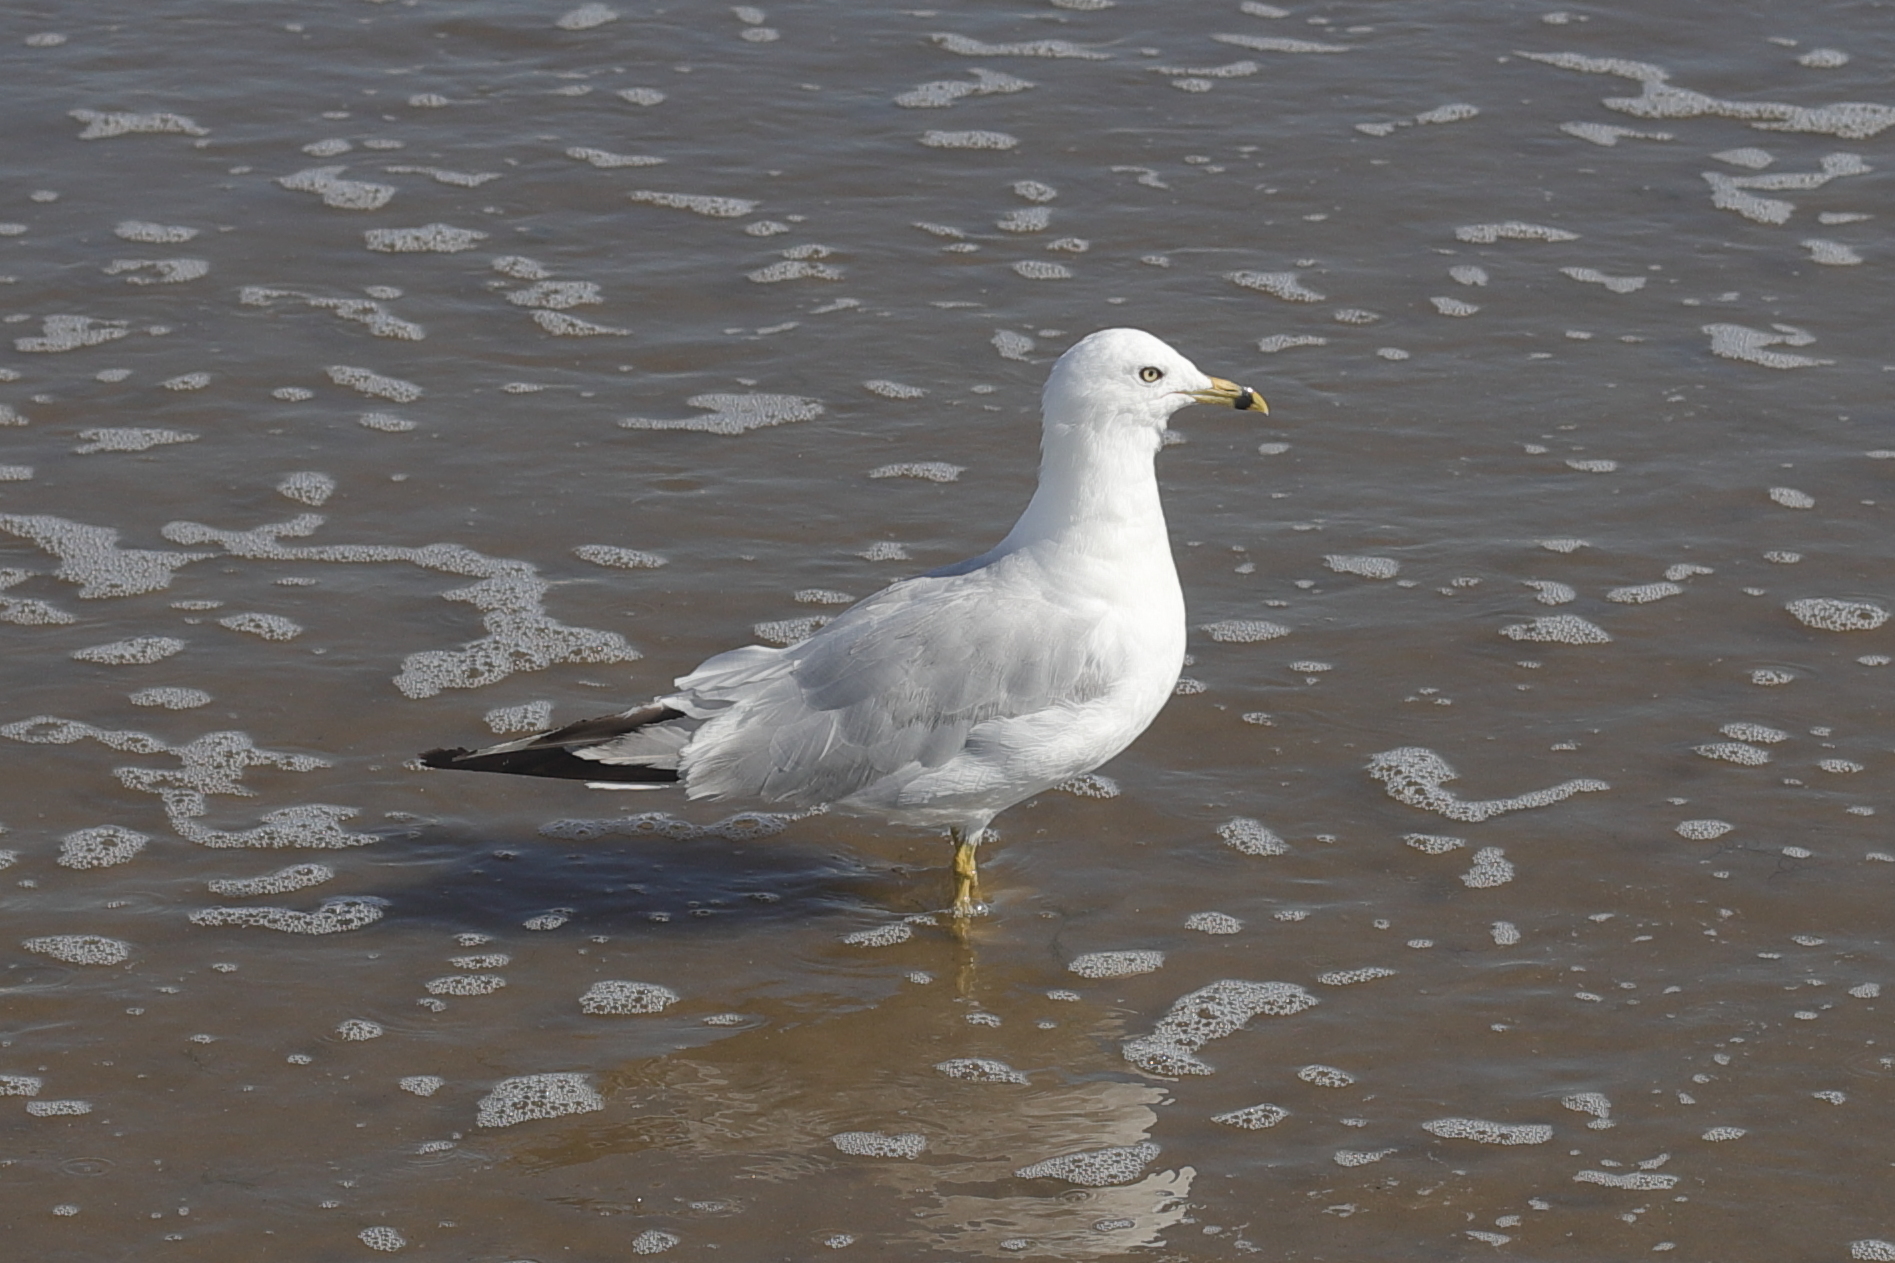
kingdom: Animalia
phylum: Chordata
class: Aves
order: Charadriiformes
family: Laridae
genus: Larus
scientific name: Larus delawarensis
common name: Ring-billed gull
